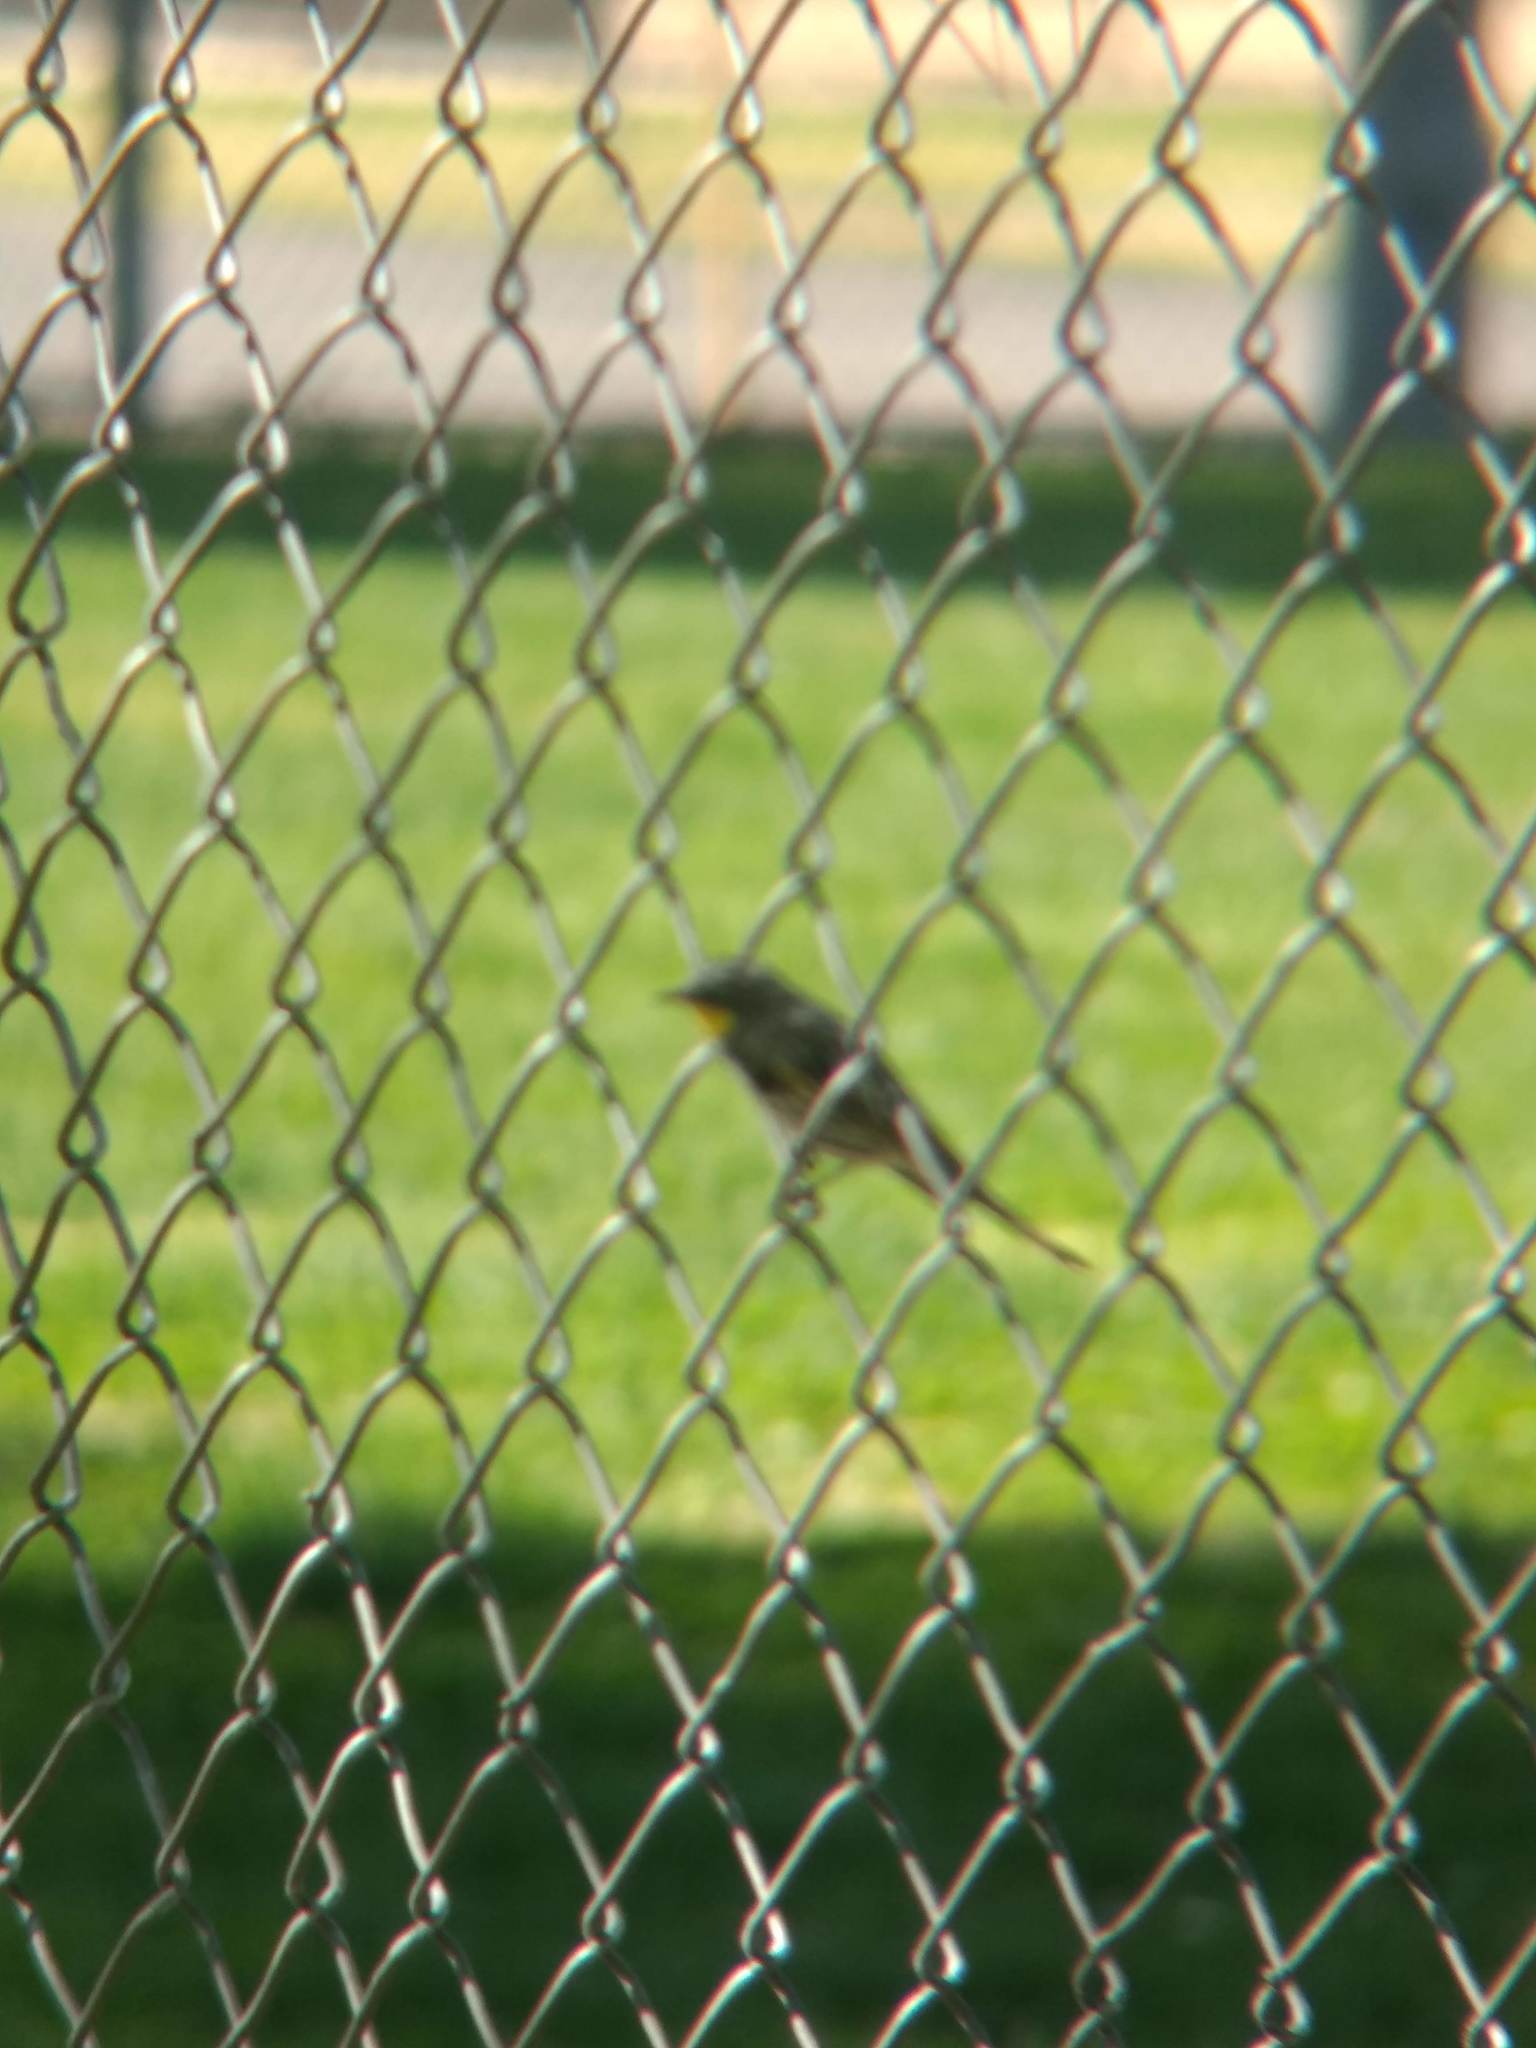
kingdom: Animalia
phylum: Chordata
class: Aves
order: Passeriformes
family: Parulidae
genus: Setophaga
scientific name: Setophaga coronata
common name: Myrtle warbler
